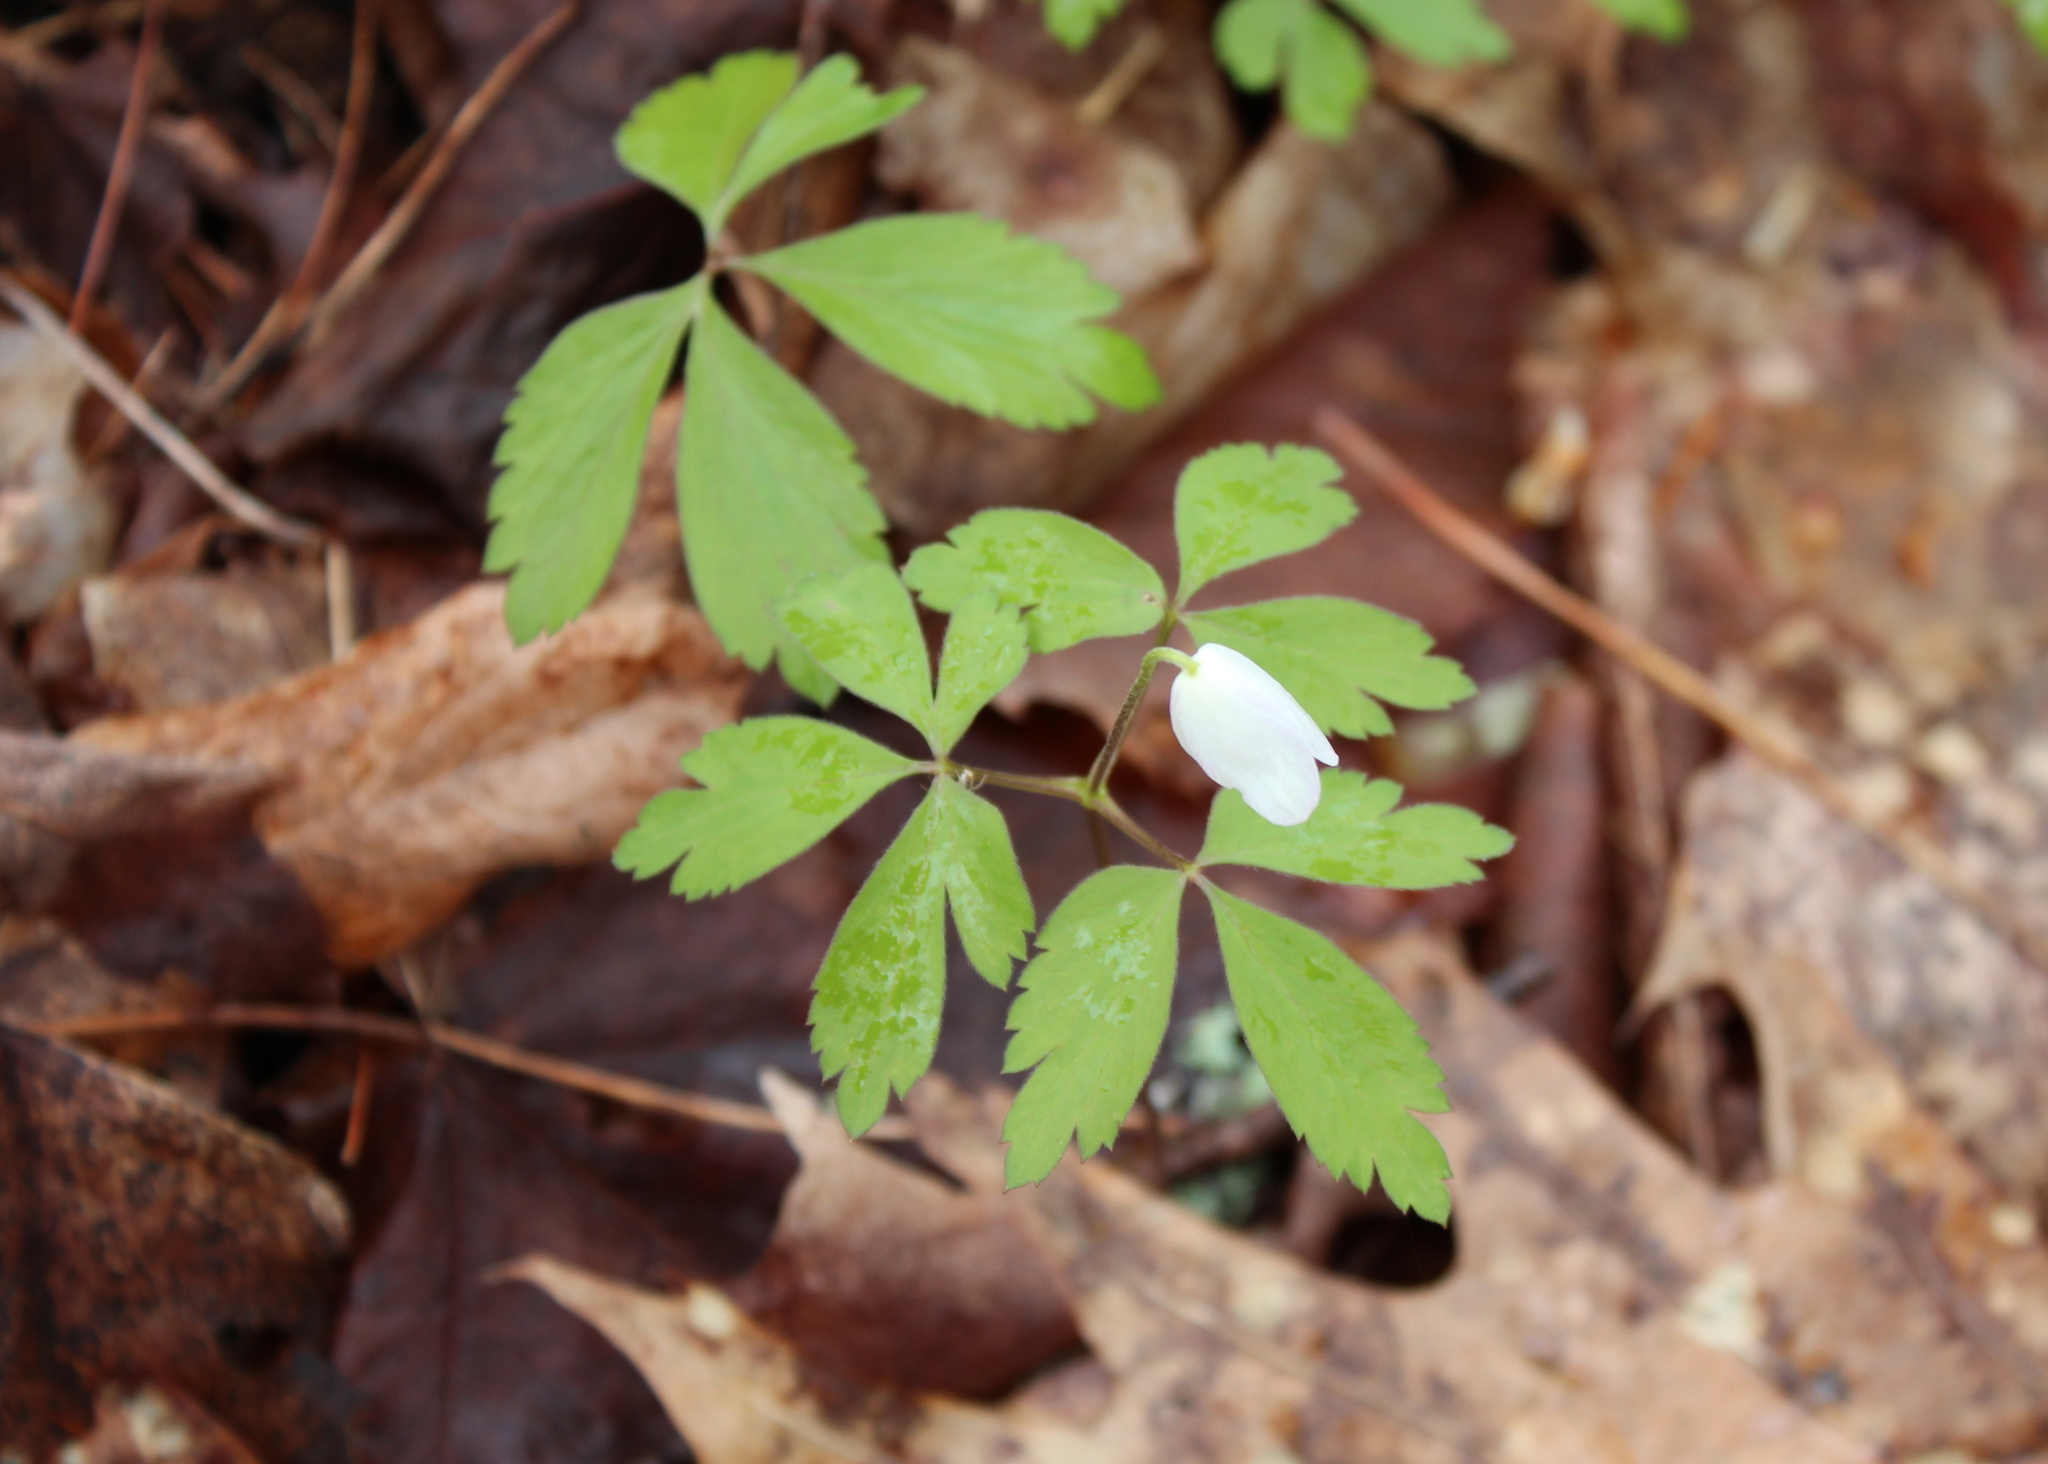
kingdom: Plantae
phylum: Tracheophyta
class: Magnoliopsida
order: Ranunculales
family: Ranunculaceae
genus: Anemone
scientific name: Anemone quinquefolia
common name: Wood anemone
